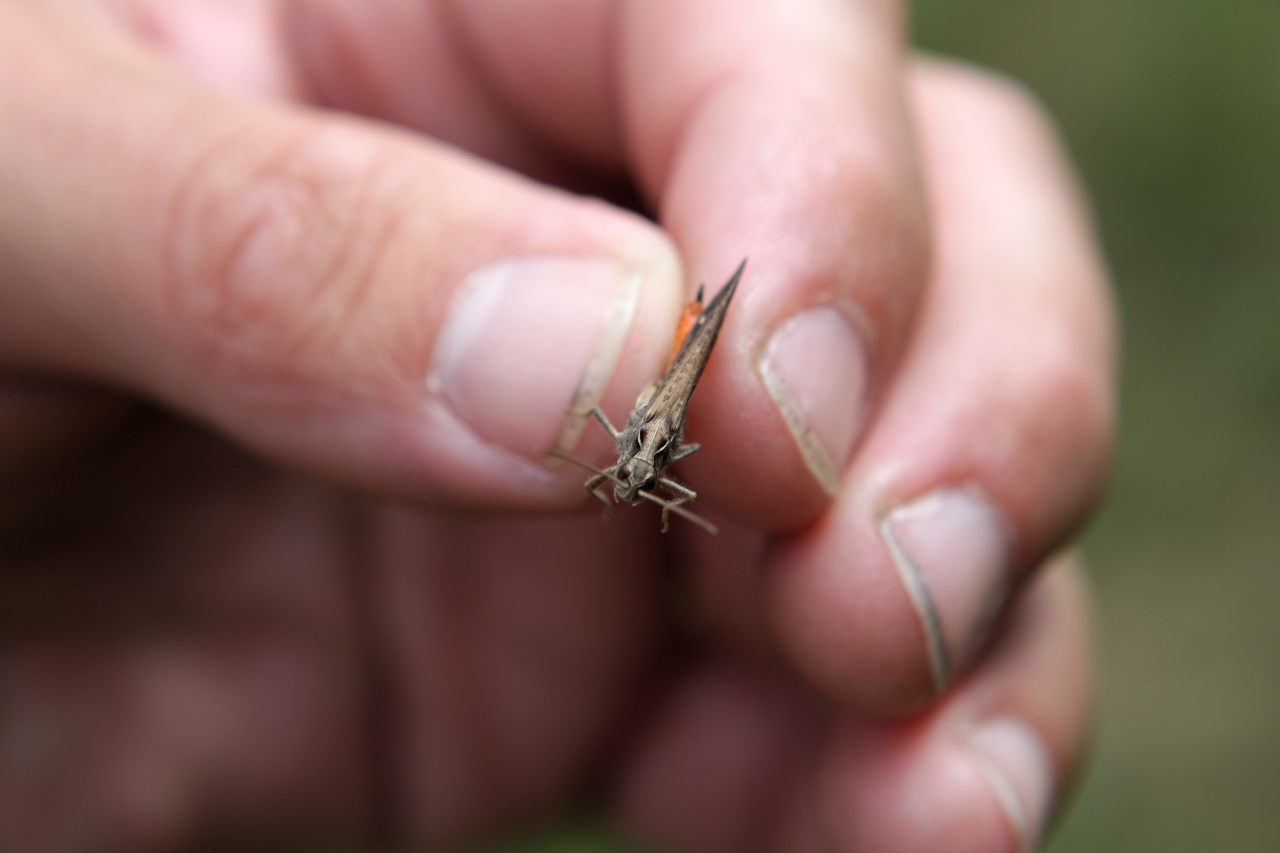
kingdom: Animalia
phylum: Arthropoda
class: Insecta
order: Orthoptera
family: Acrididae
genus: Chorthippus
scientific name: Chorthippus brunneus
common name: Field grasshopper
